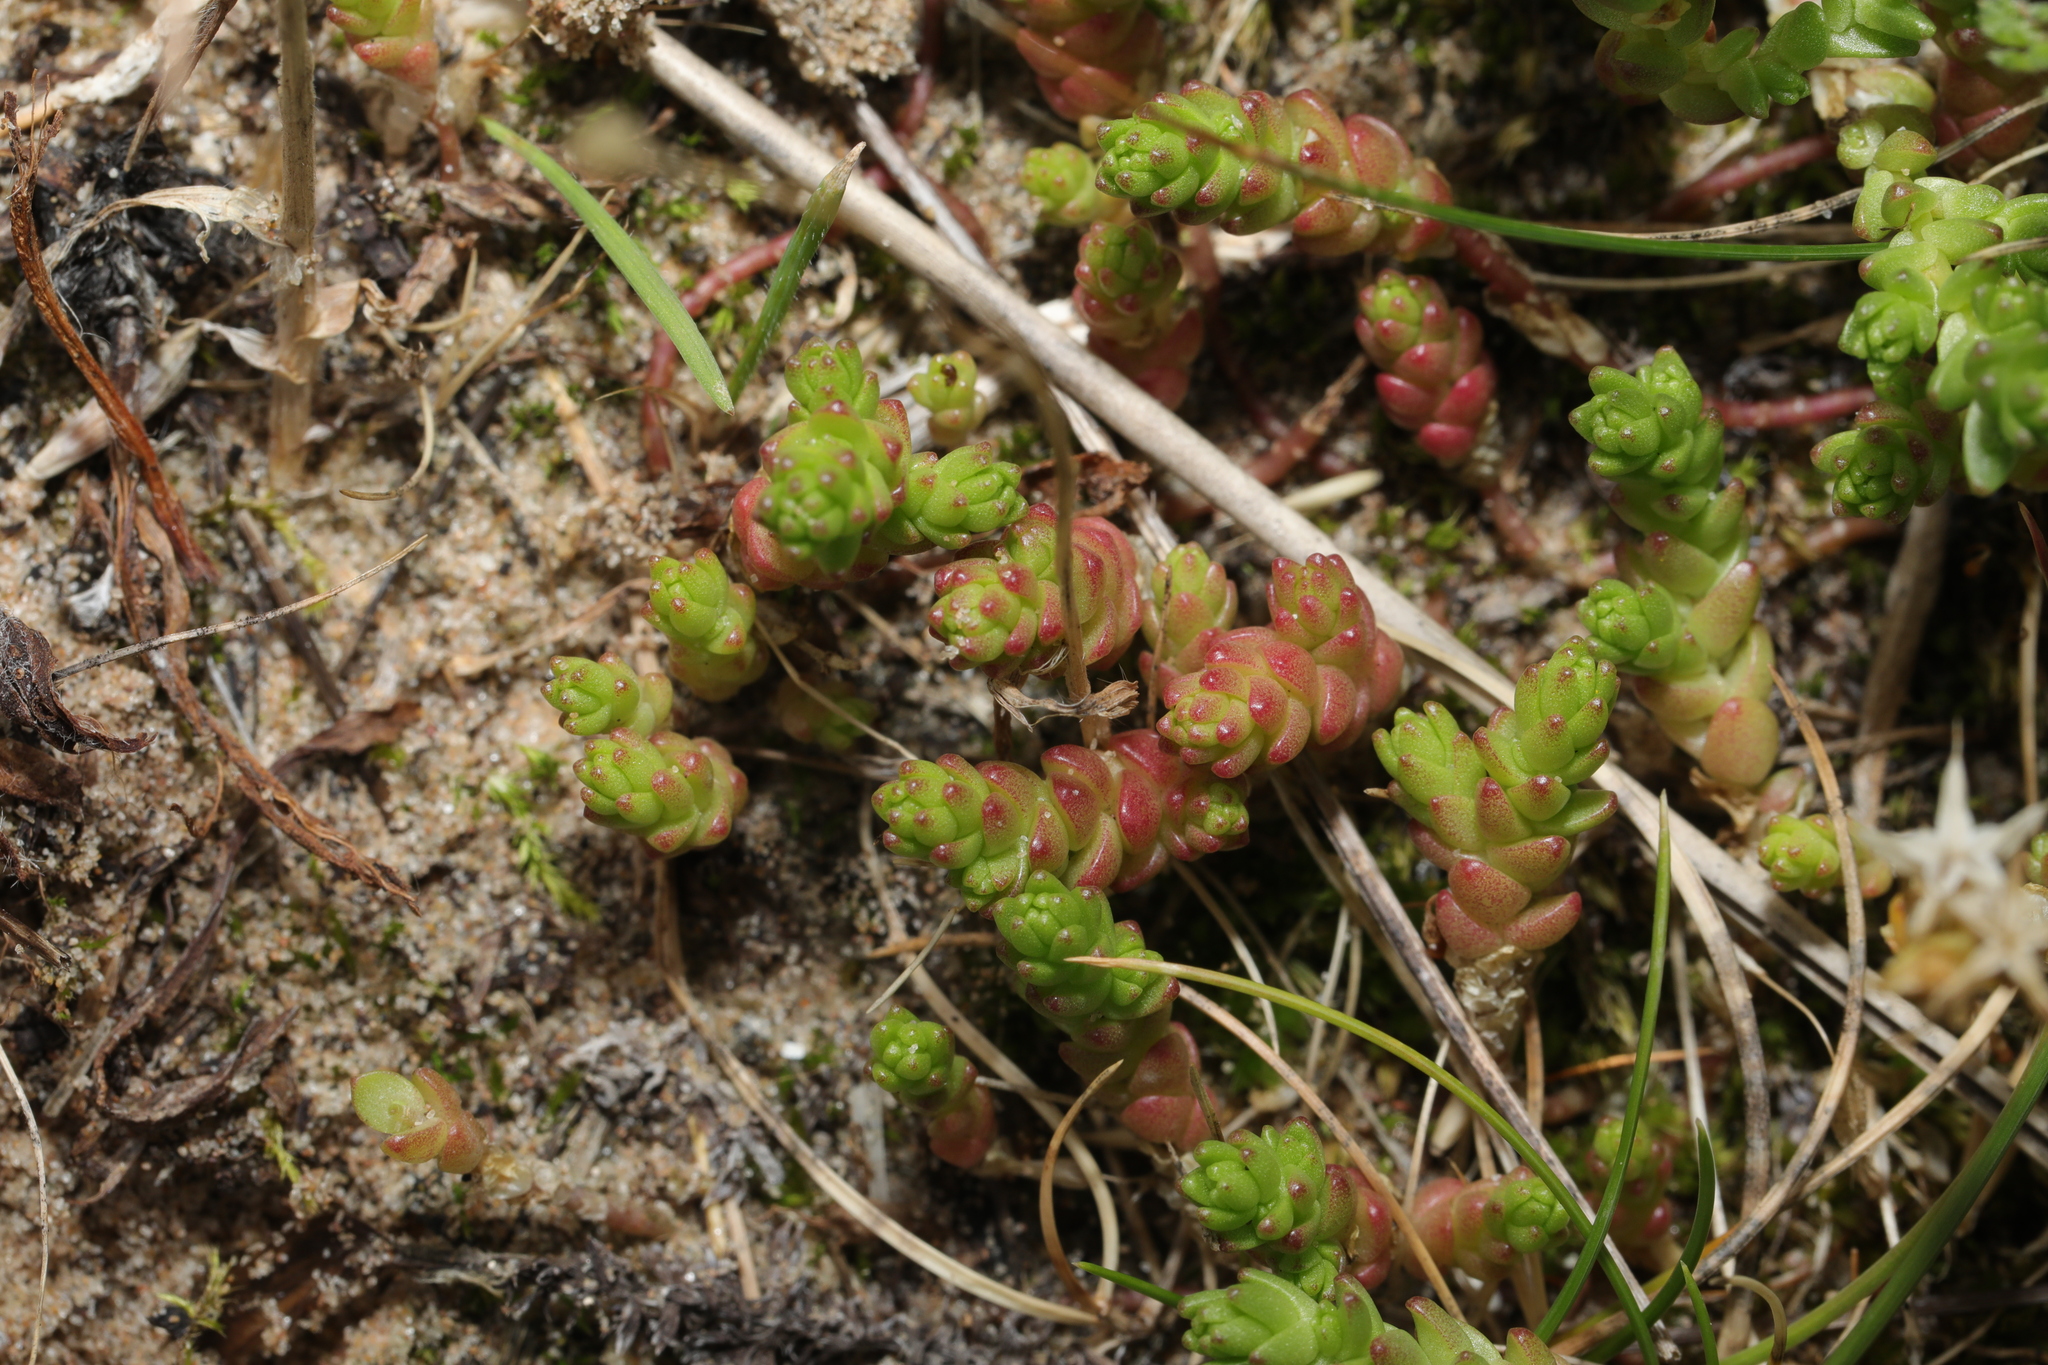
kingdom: Plantae
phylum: Tracheophyta
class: Magnoliopsida
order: Saxifragales
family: Crassulaceae
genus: Sedum
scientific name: Sedum acre
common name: Biting stonecrop
